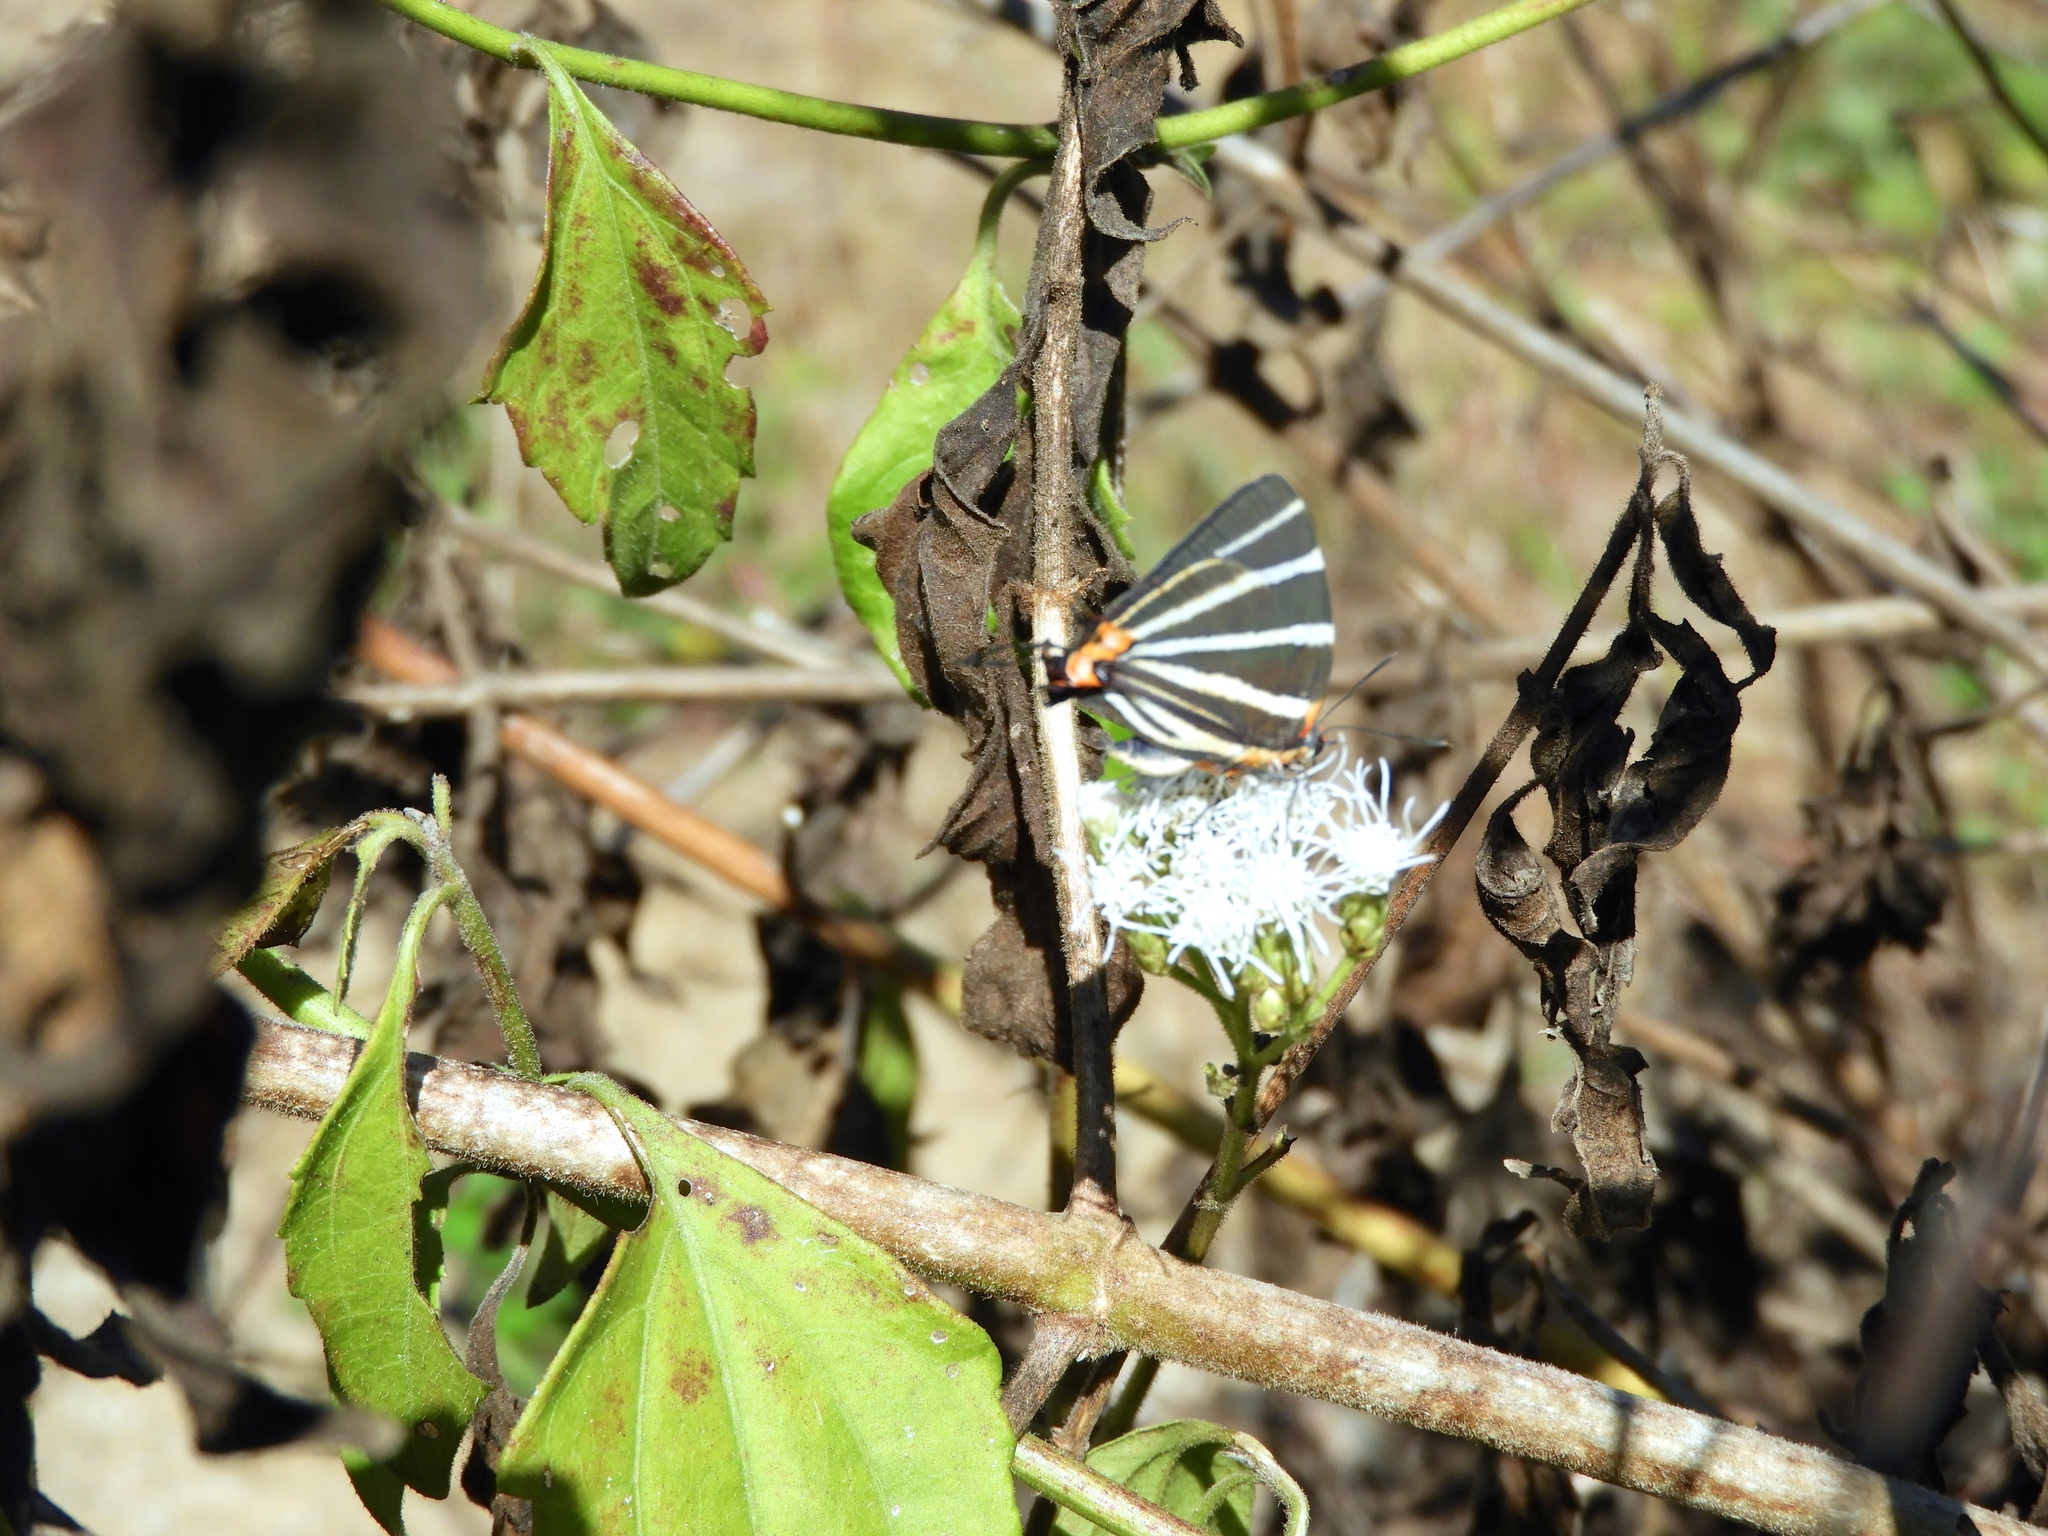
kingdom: Animalia
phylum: Arthropoda
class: Insecta
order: Lepidoptera
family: Lycaenidae
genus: Thecla
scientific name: Thecla bathildis
